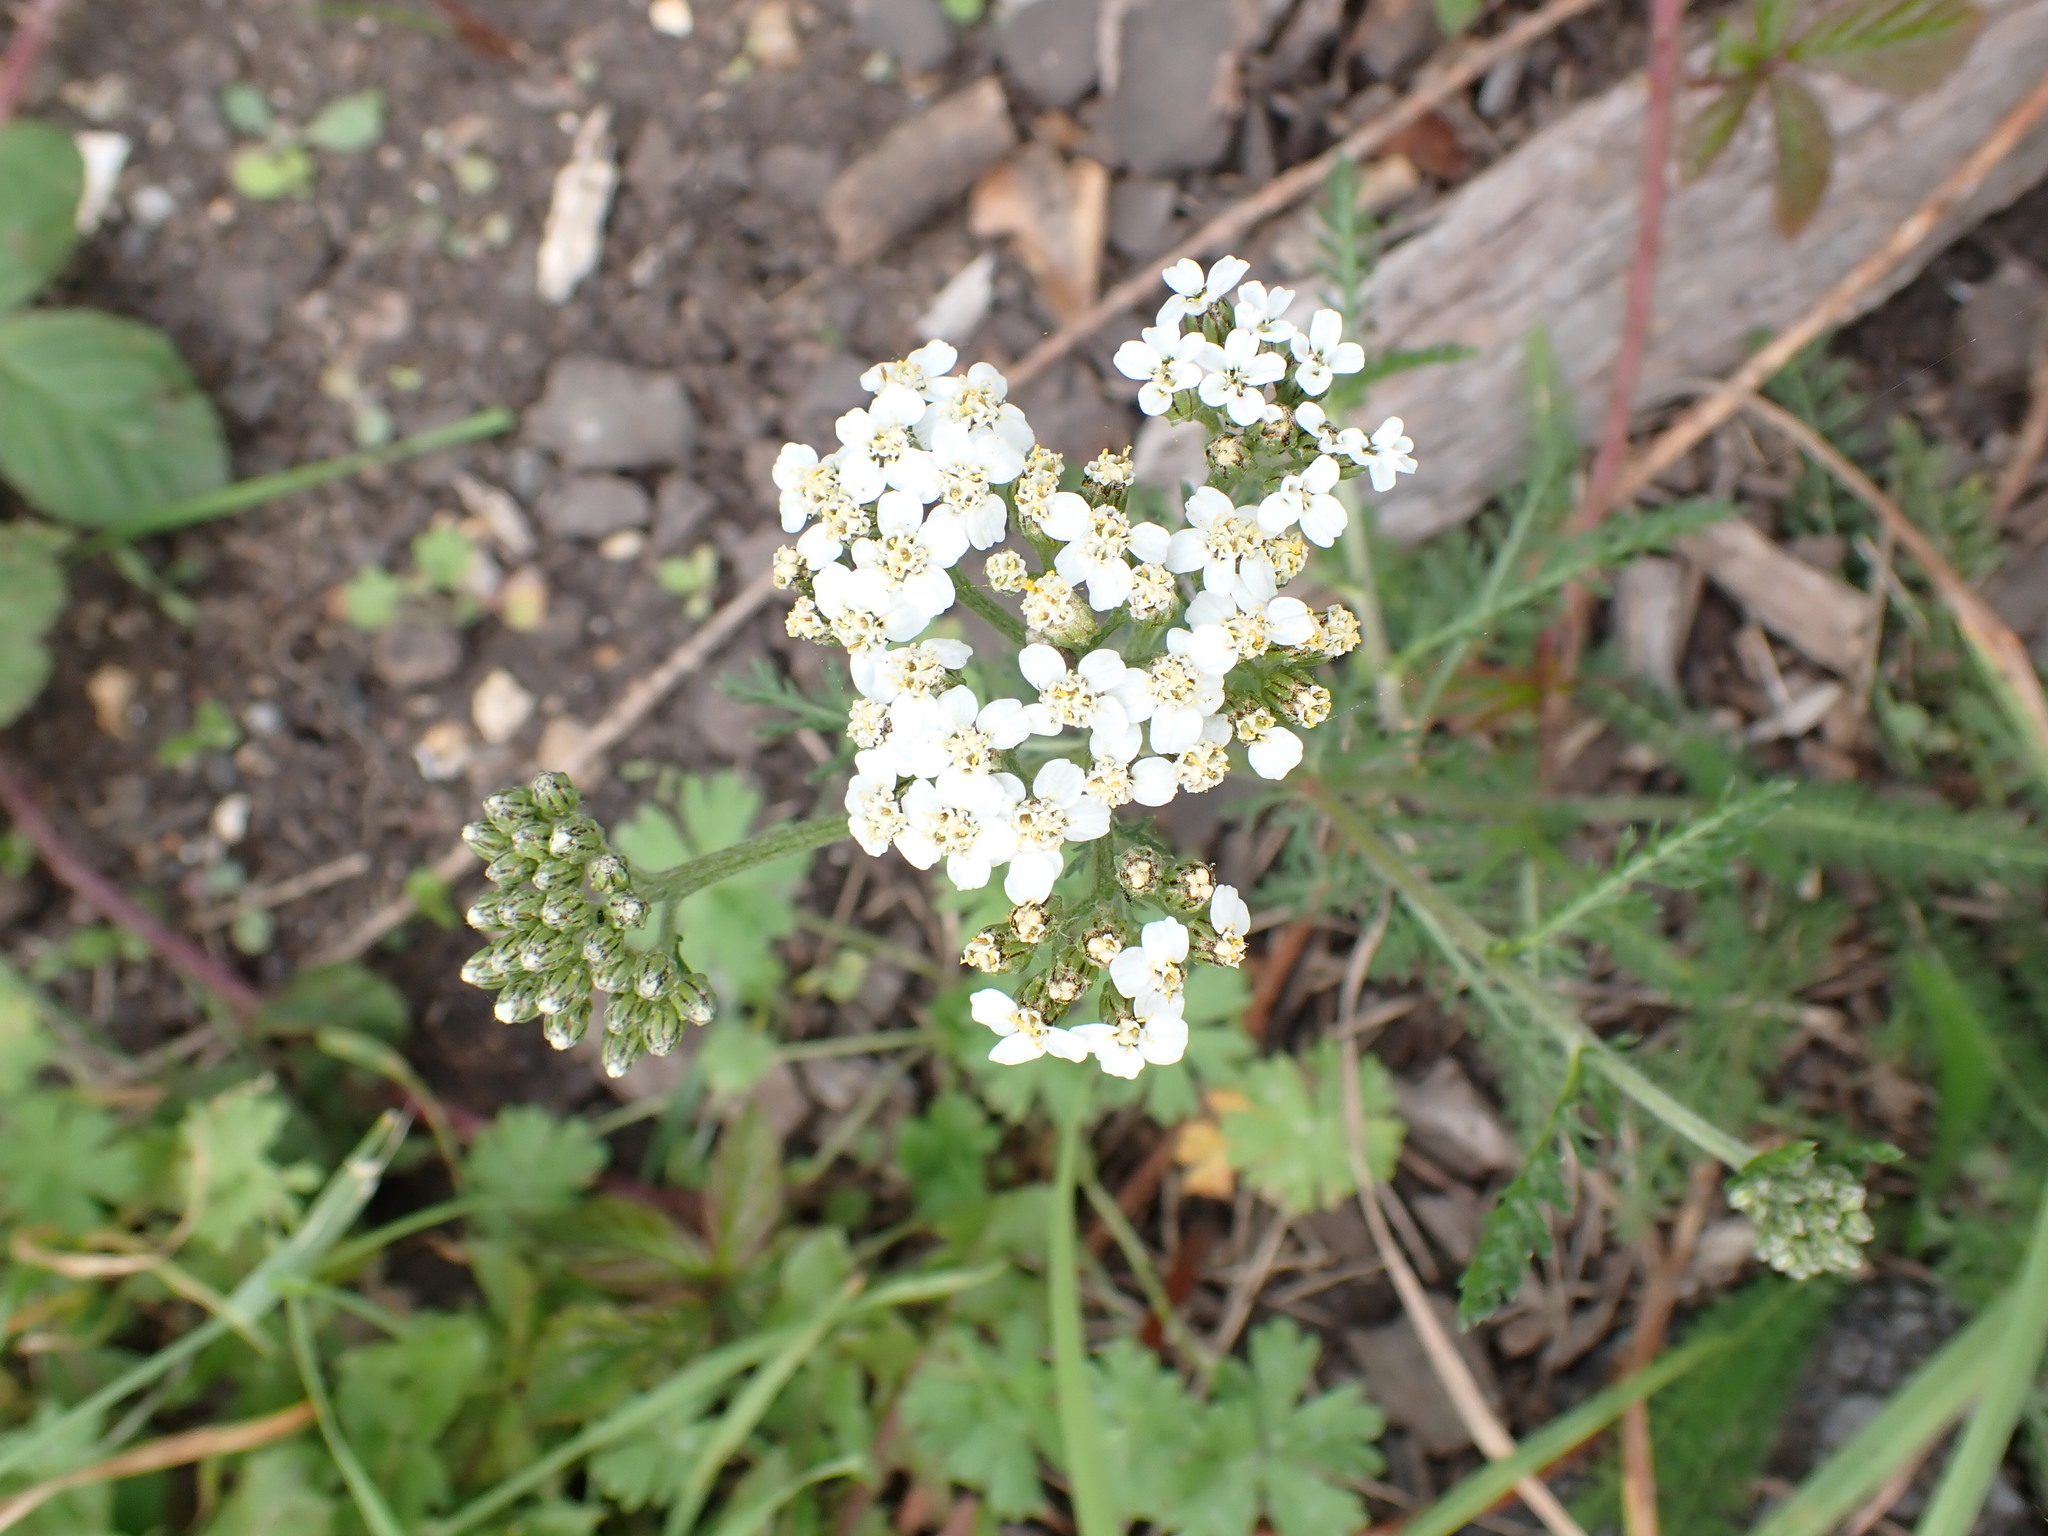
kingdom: Plantae
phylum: Tracheophyta
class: Magnoliopsida
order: Asterales
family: Asteraceae
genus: Achillea
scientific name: Achillea millefolium
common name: Yarrow
